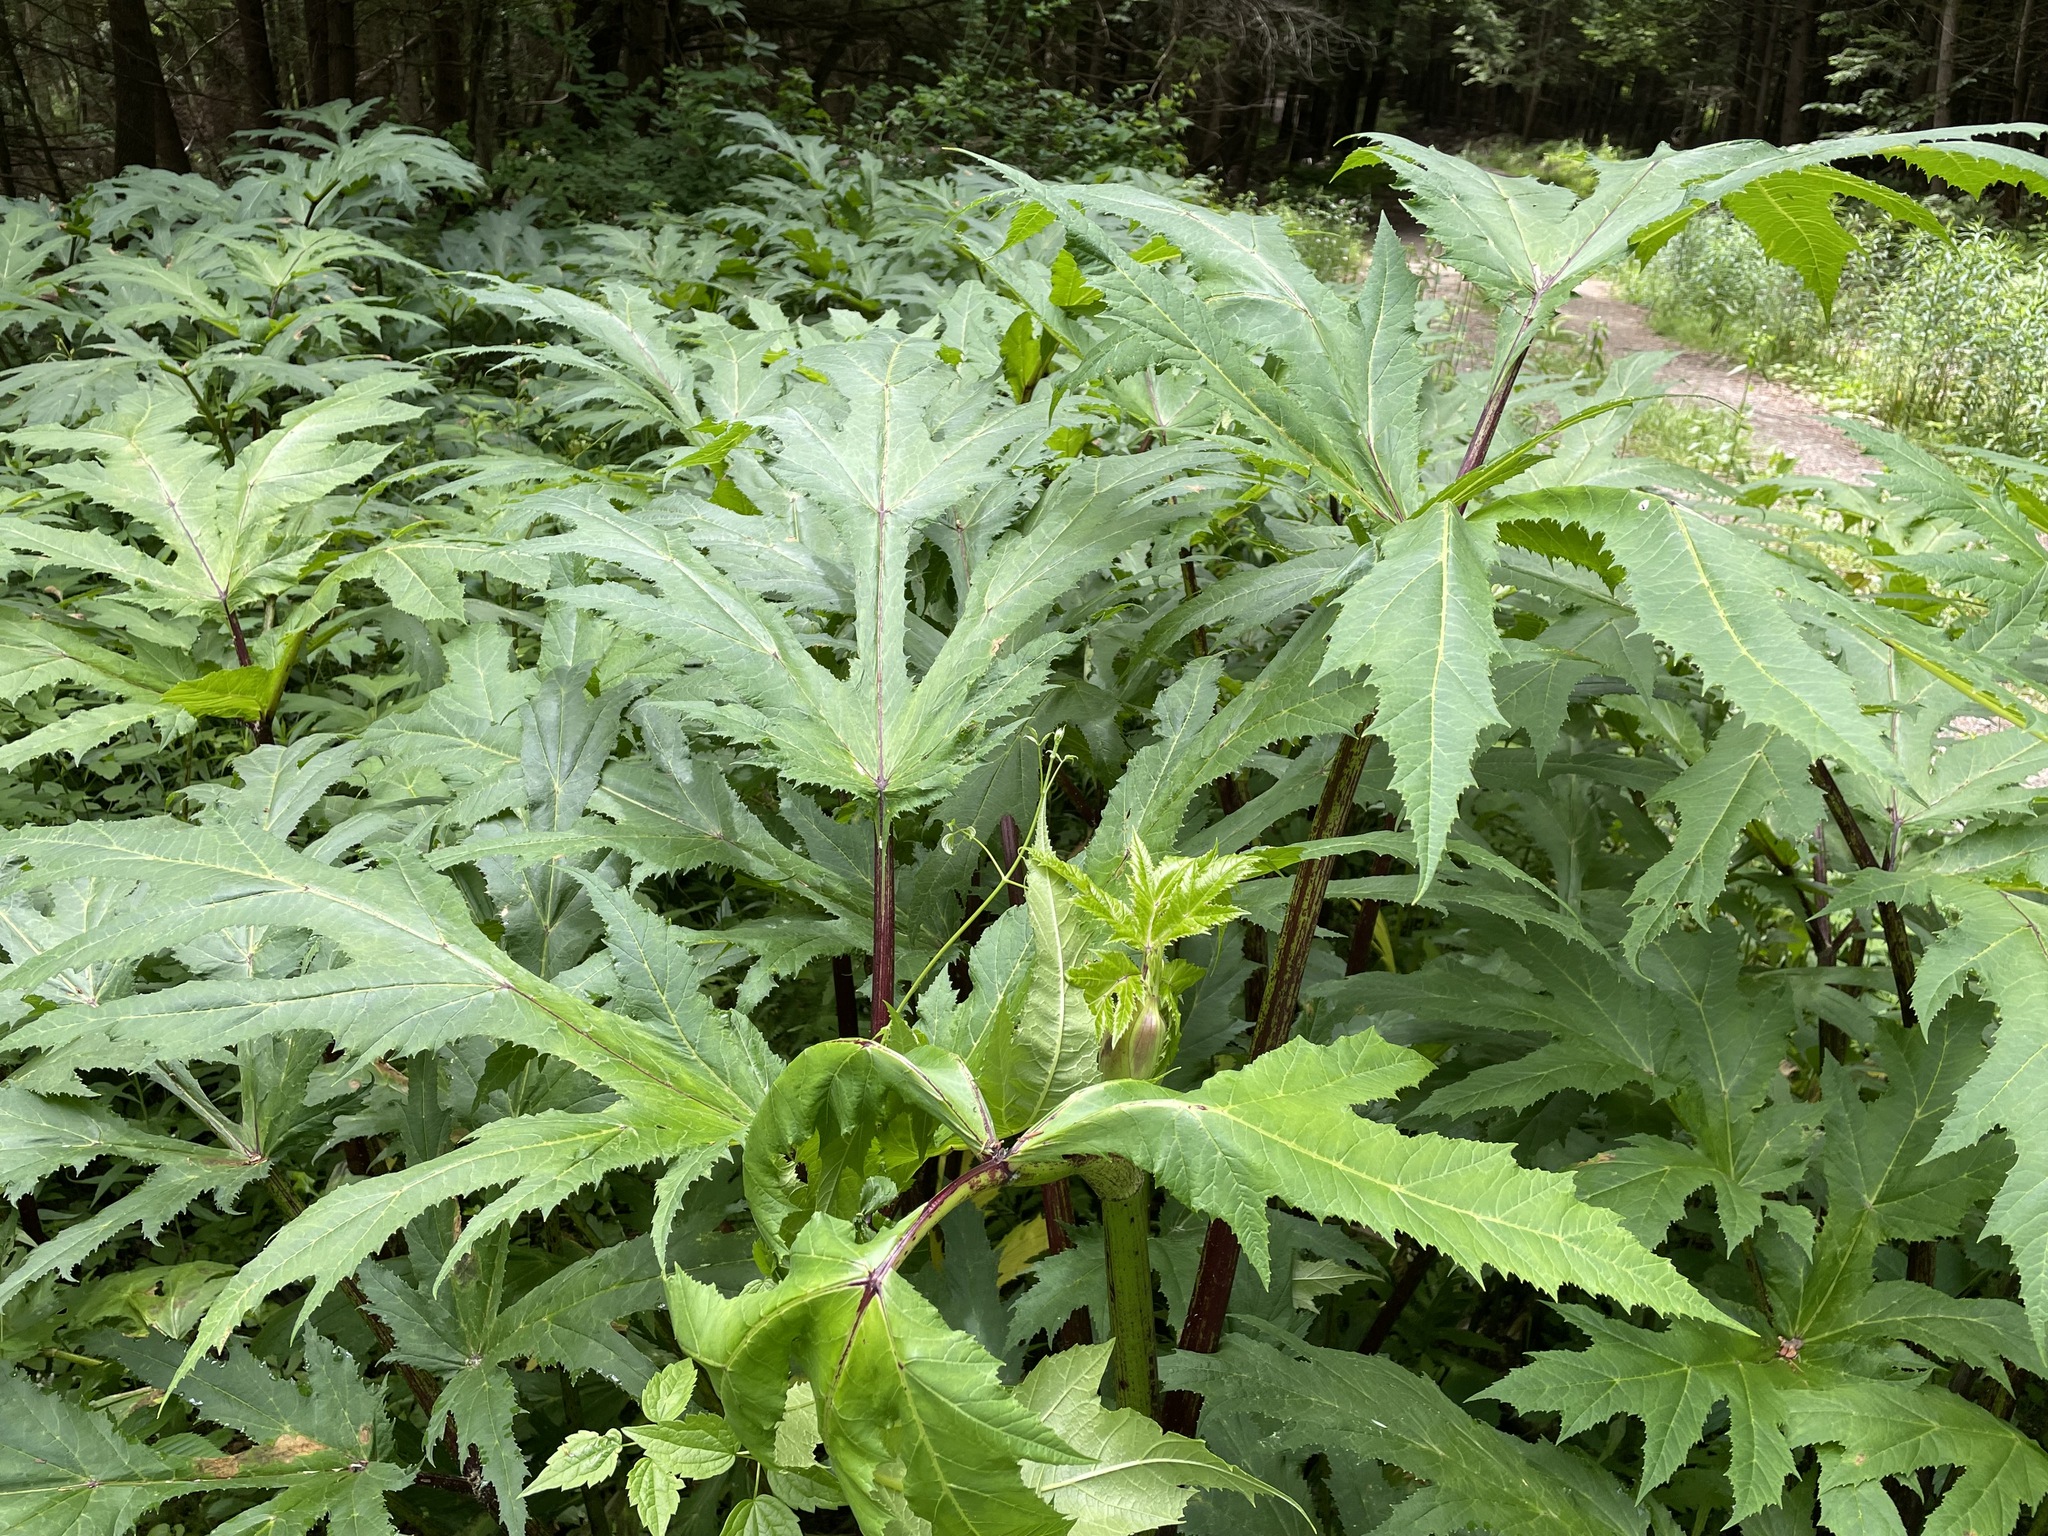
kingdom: Plantae
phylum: Tracheophyta
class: Magnoliopsida
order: Apiales
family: Apiaceae
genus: Heracleum
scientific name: Heracleum mantegazzianum
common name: Giant hogweed
